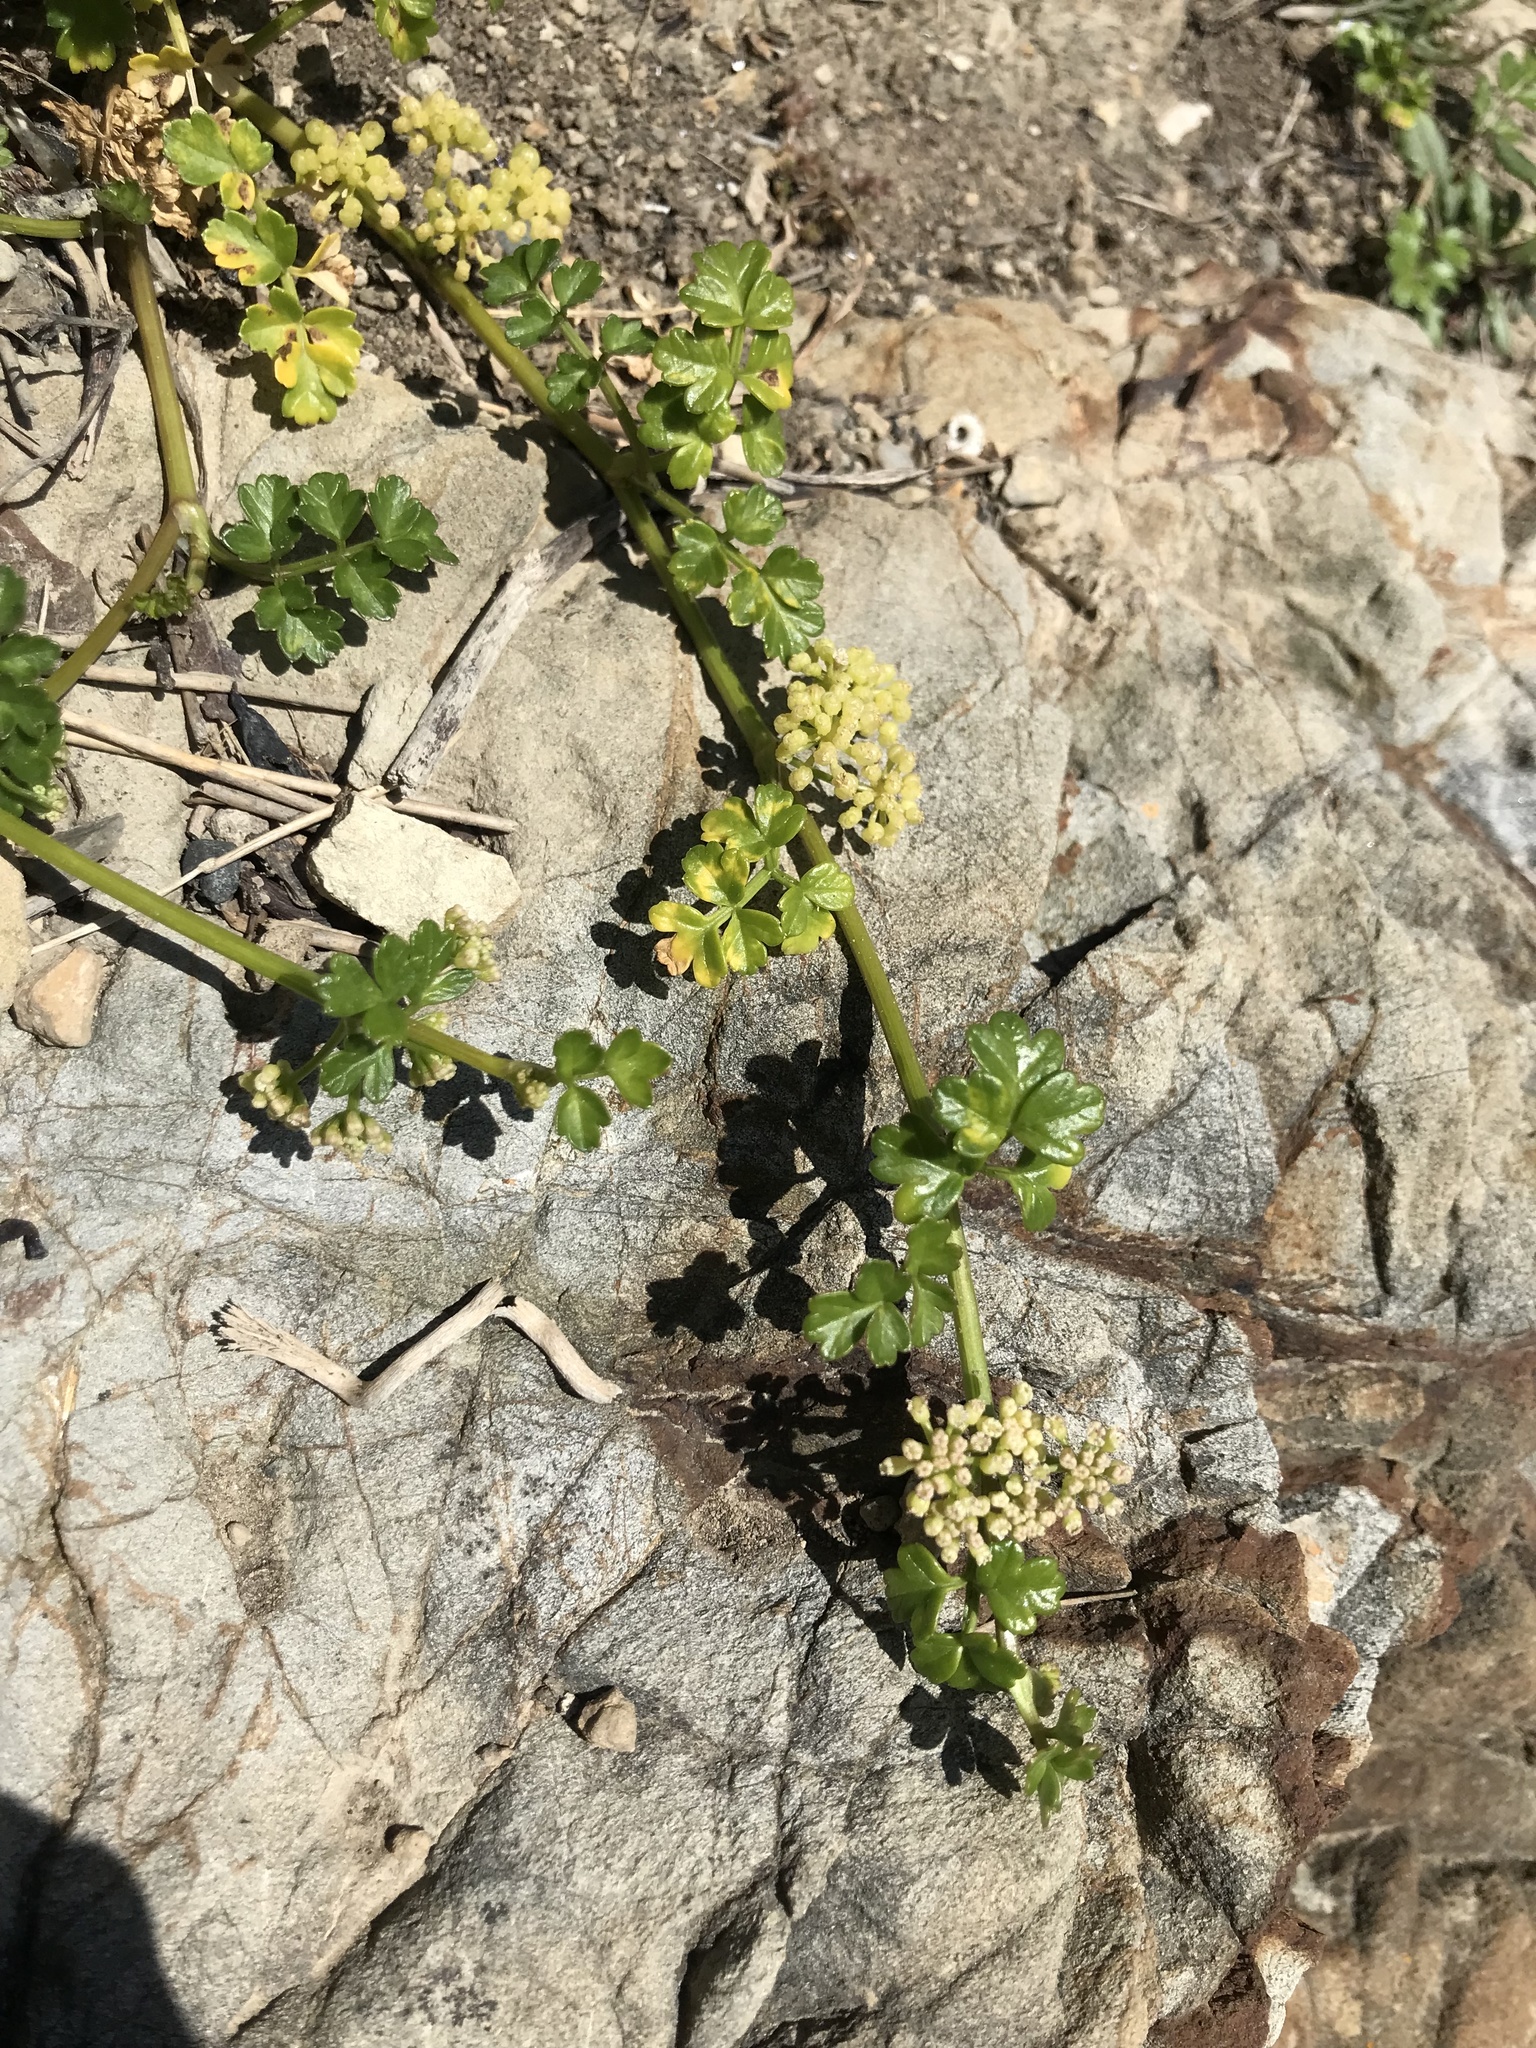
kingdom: Plantae
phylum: Tracheophyta
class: Magnoliopsida
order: Apiales
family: Apiaceae
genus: Apium
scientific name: Apium prostratum
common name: Prostrate marshwort
